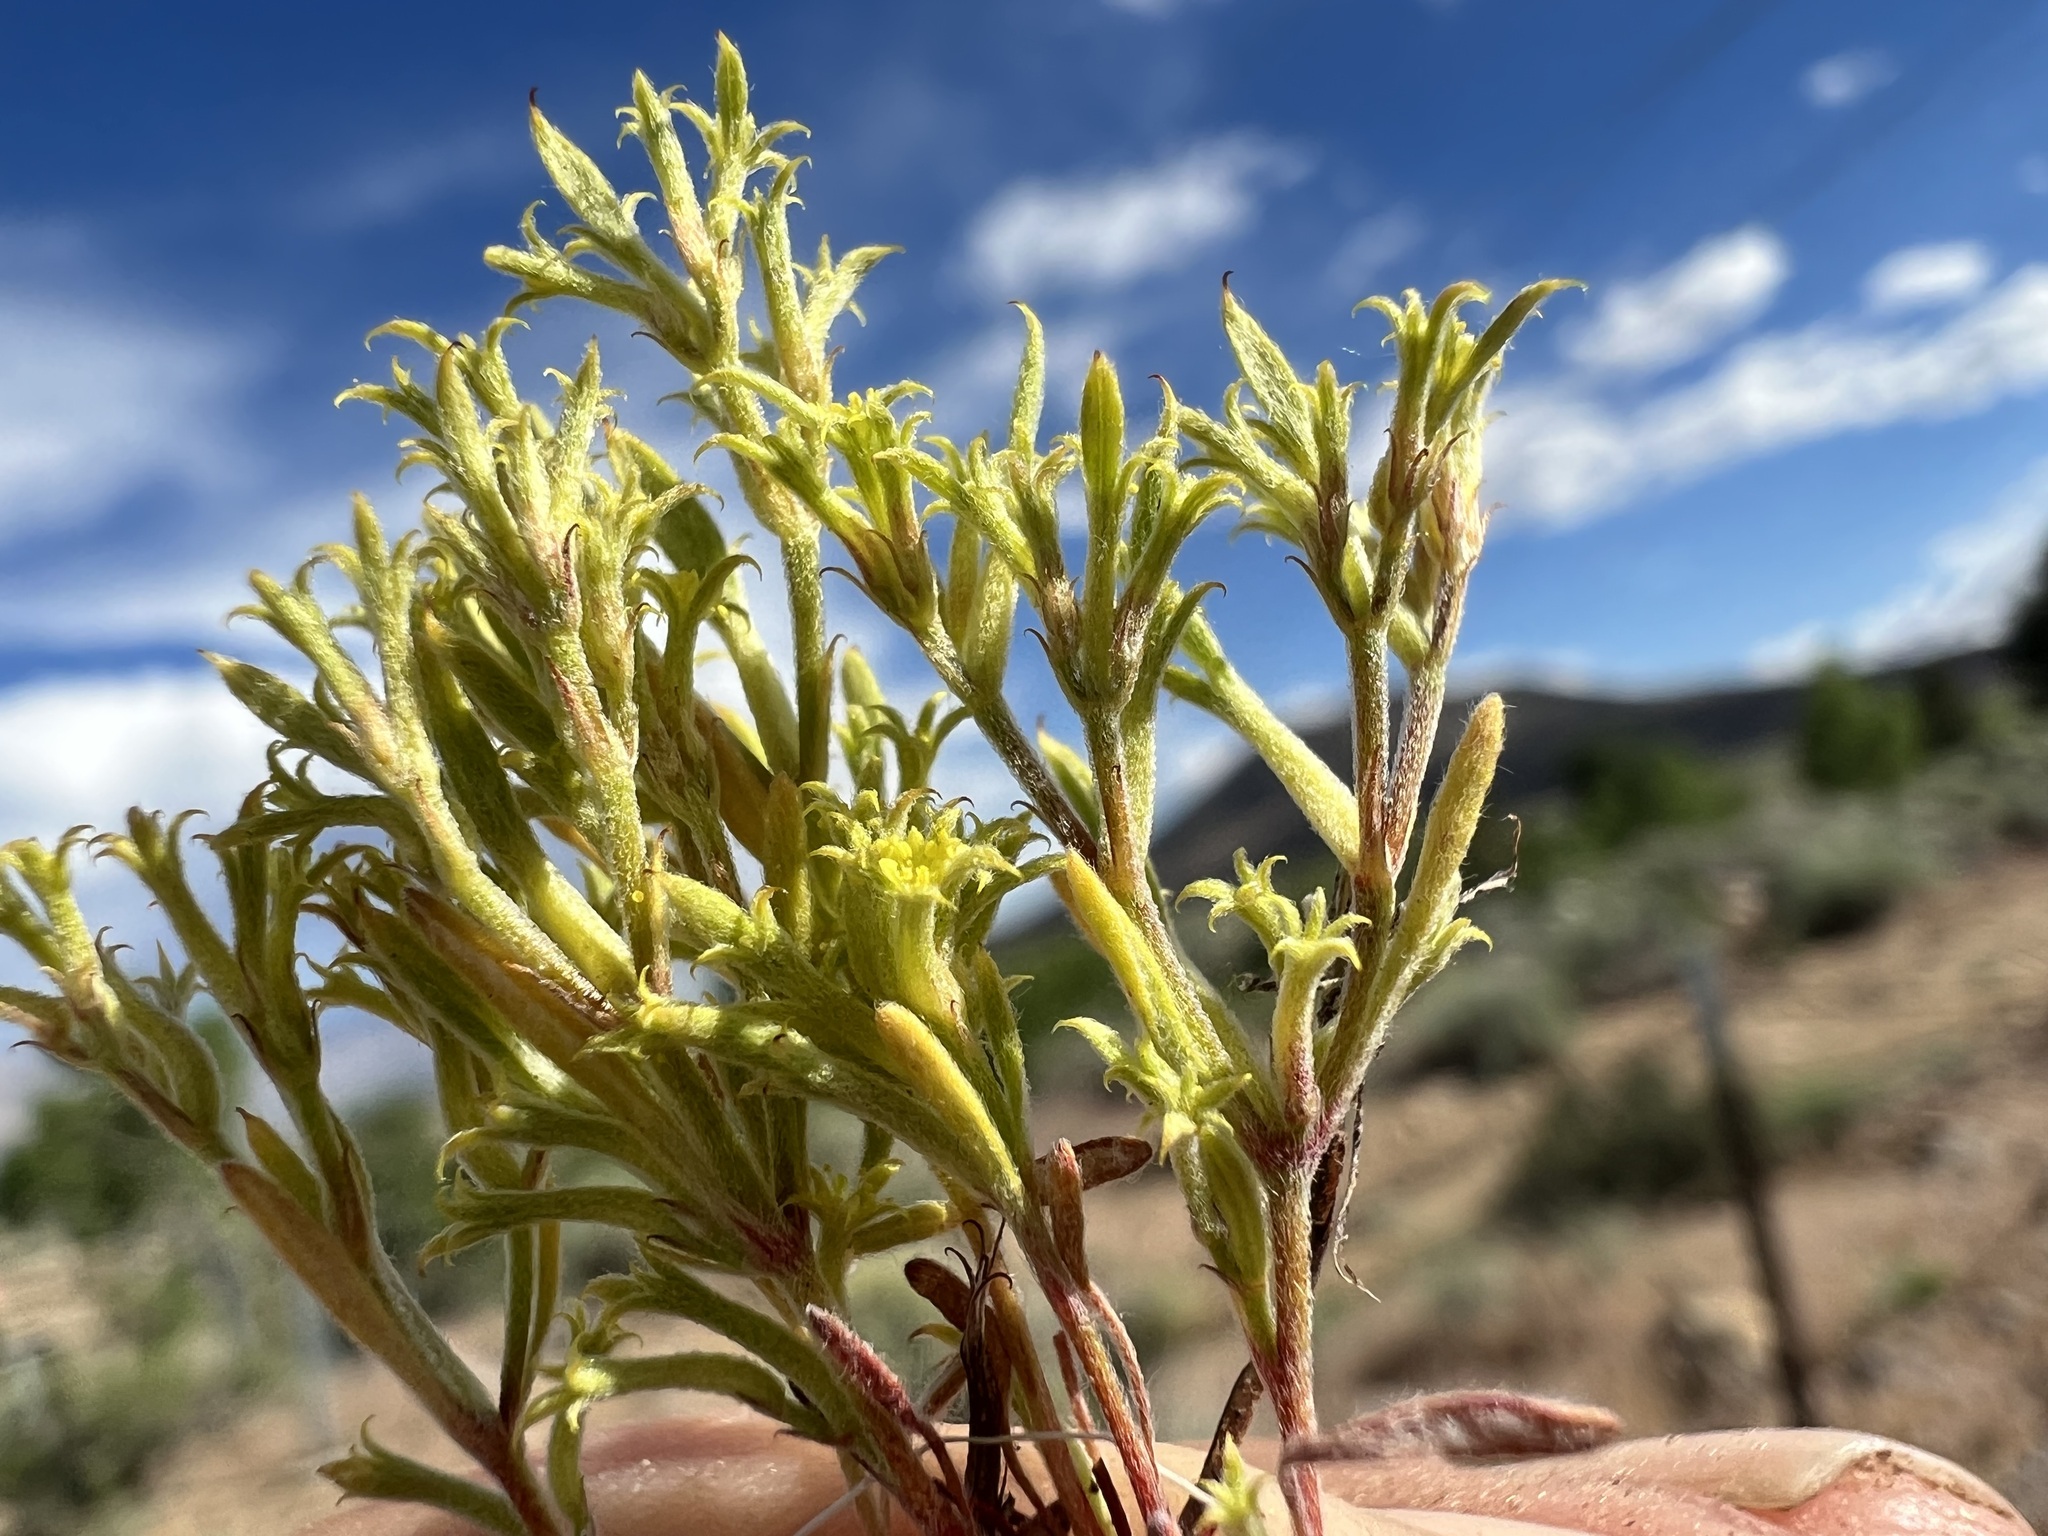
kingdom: Plantae
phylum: Tracheophyta
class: Magnoliopsida
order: Caryophyllales
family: Polygonaceae
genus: Chorizanthe
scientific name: Chorizanthe watsonii
